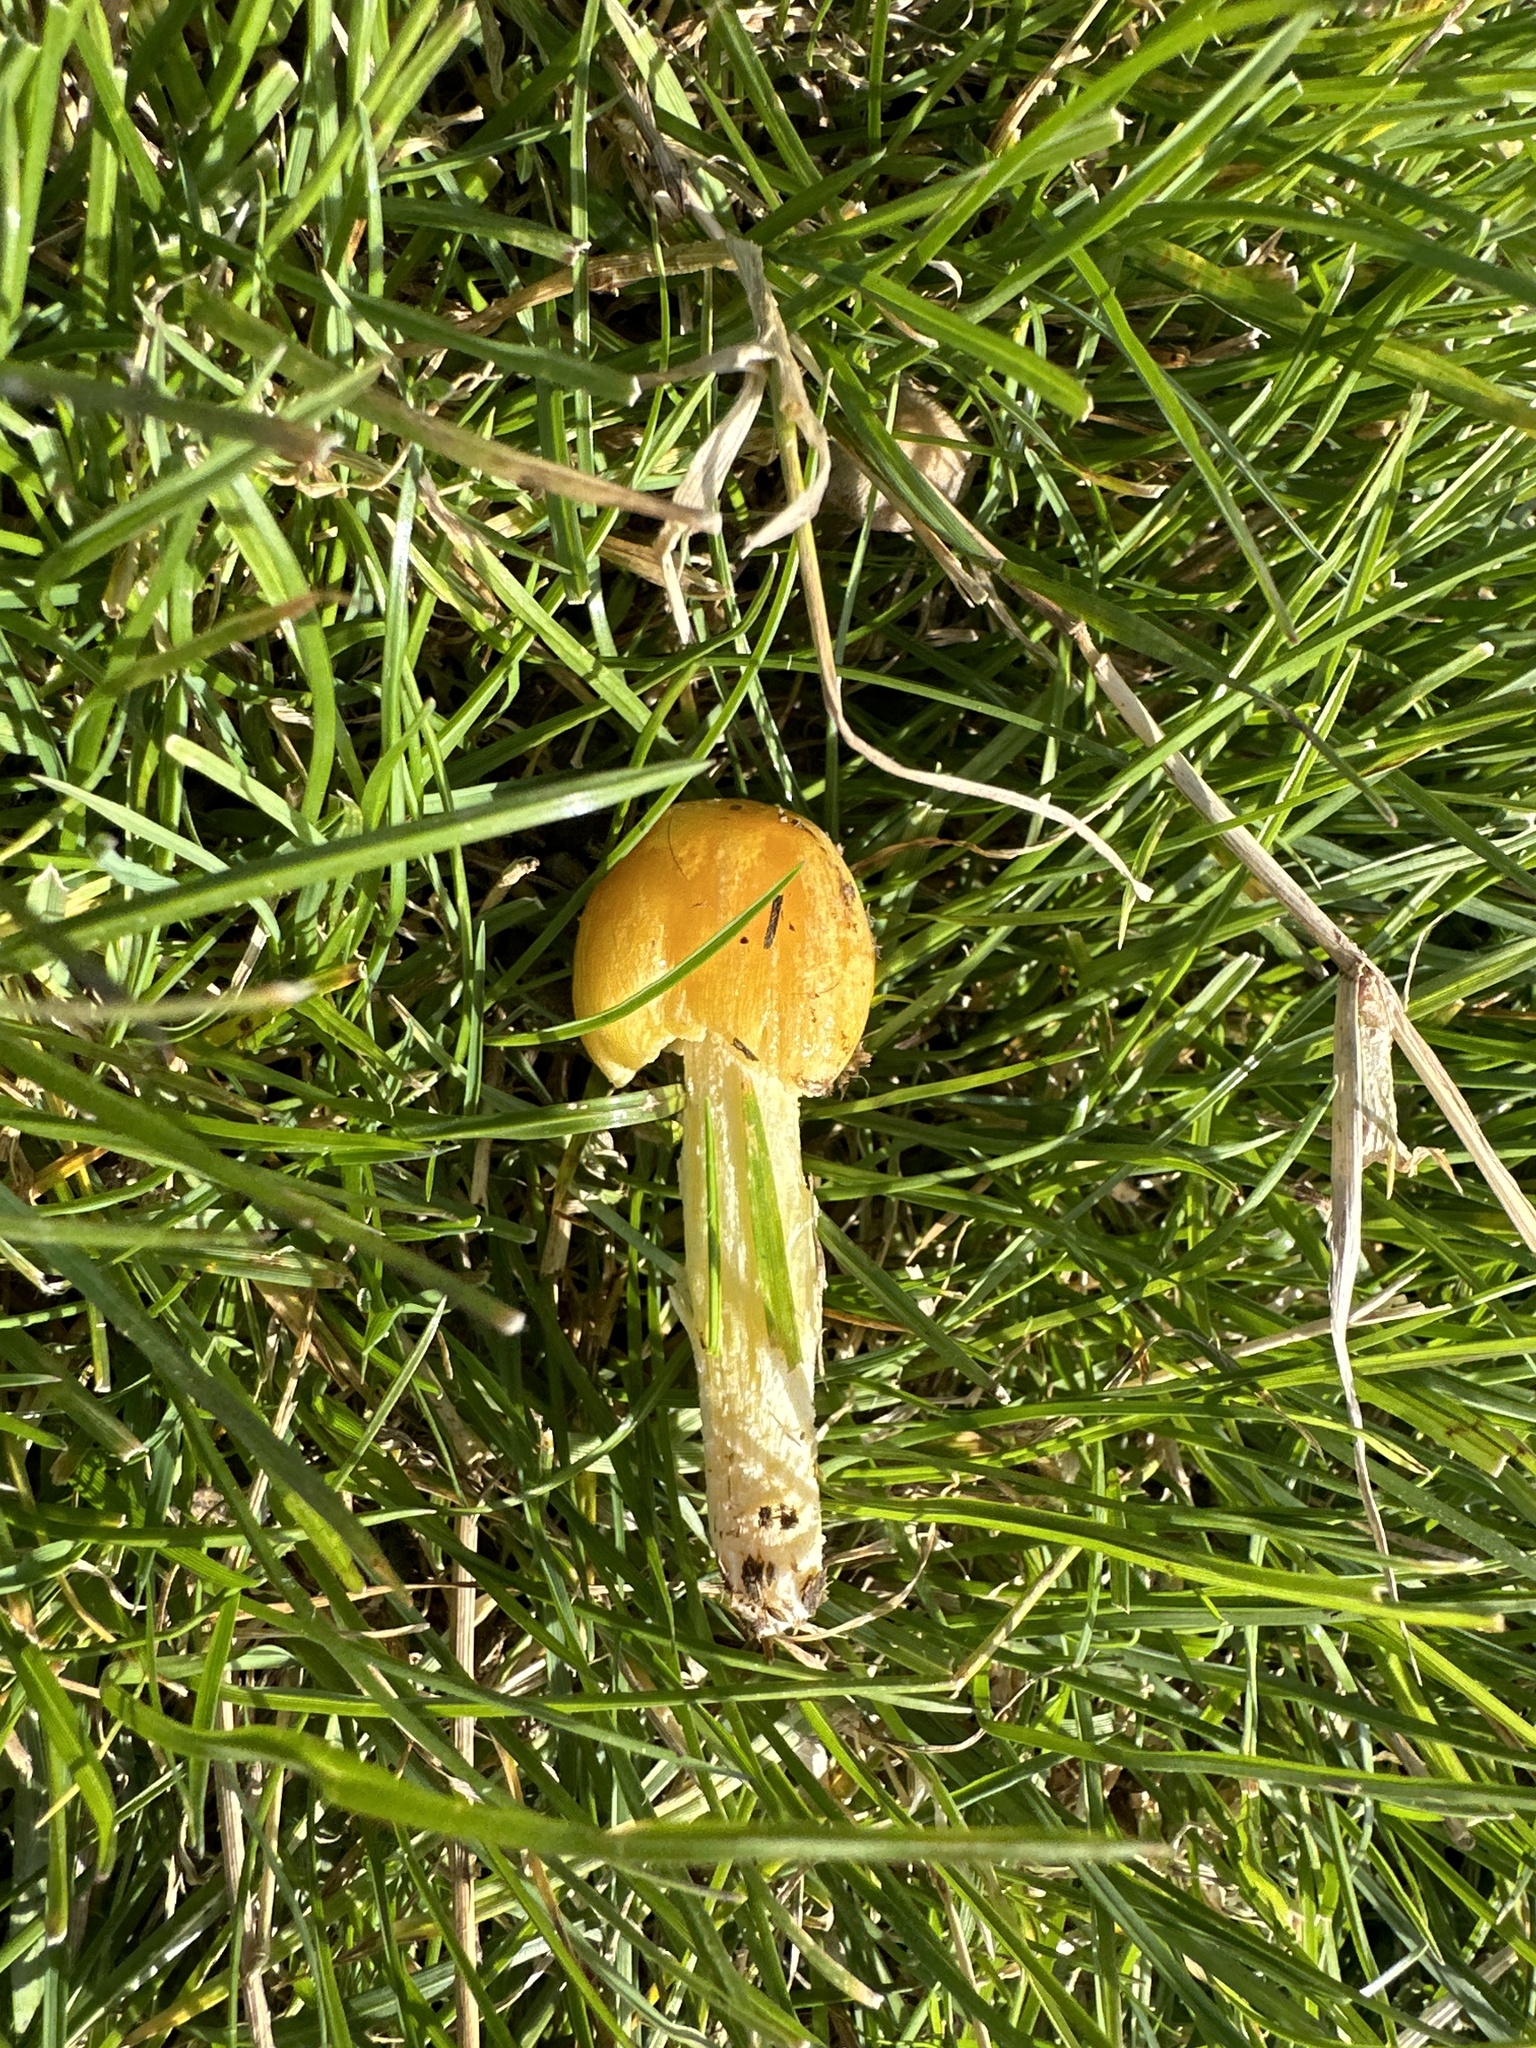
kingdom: Fungi
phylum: Basidiomycota
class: Agaricomycetes
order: Agaricales
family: Bolbitiaceae
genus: Bolbitius
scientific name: Bolbitius titubans
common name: Yellow fieldcap
